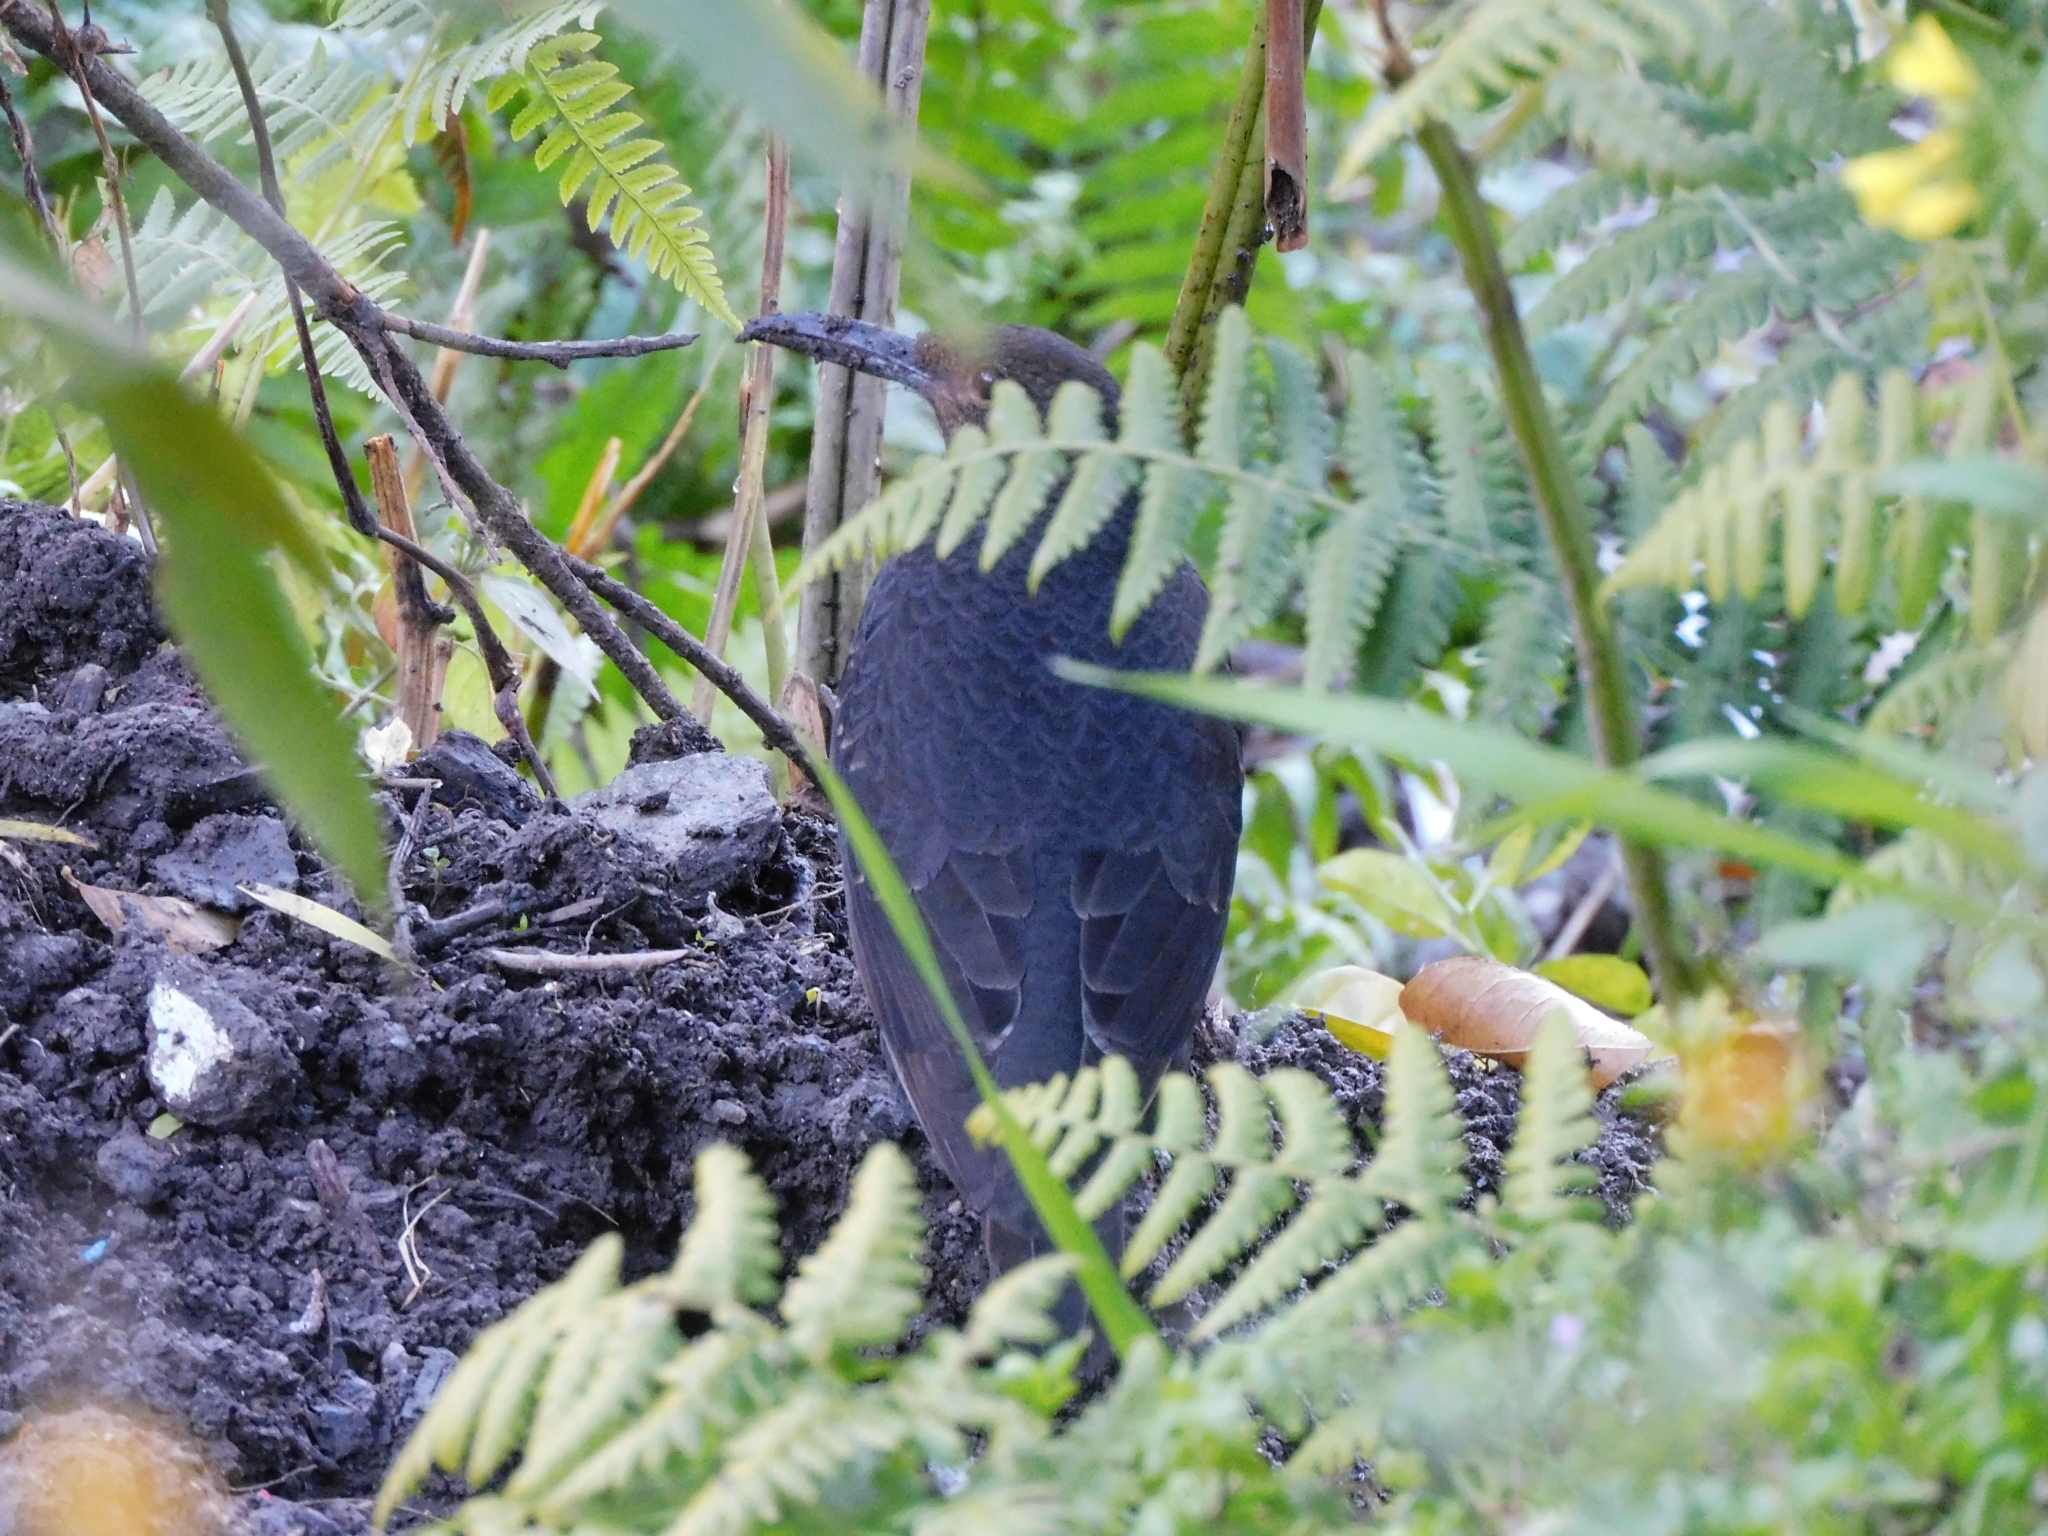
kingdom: Animalia
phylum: Chordata
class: Aves
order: Passeriformes
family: Turdidae
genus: Zoothera
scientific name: Zoothera monticola
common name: Long-billed thrush
